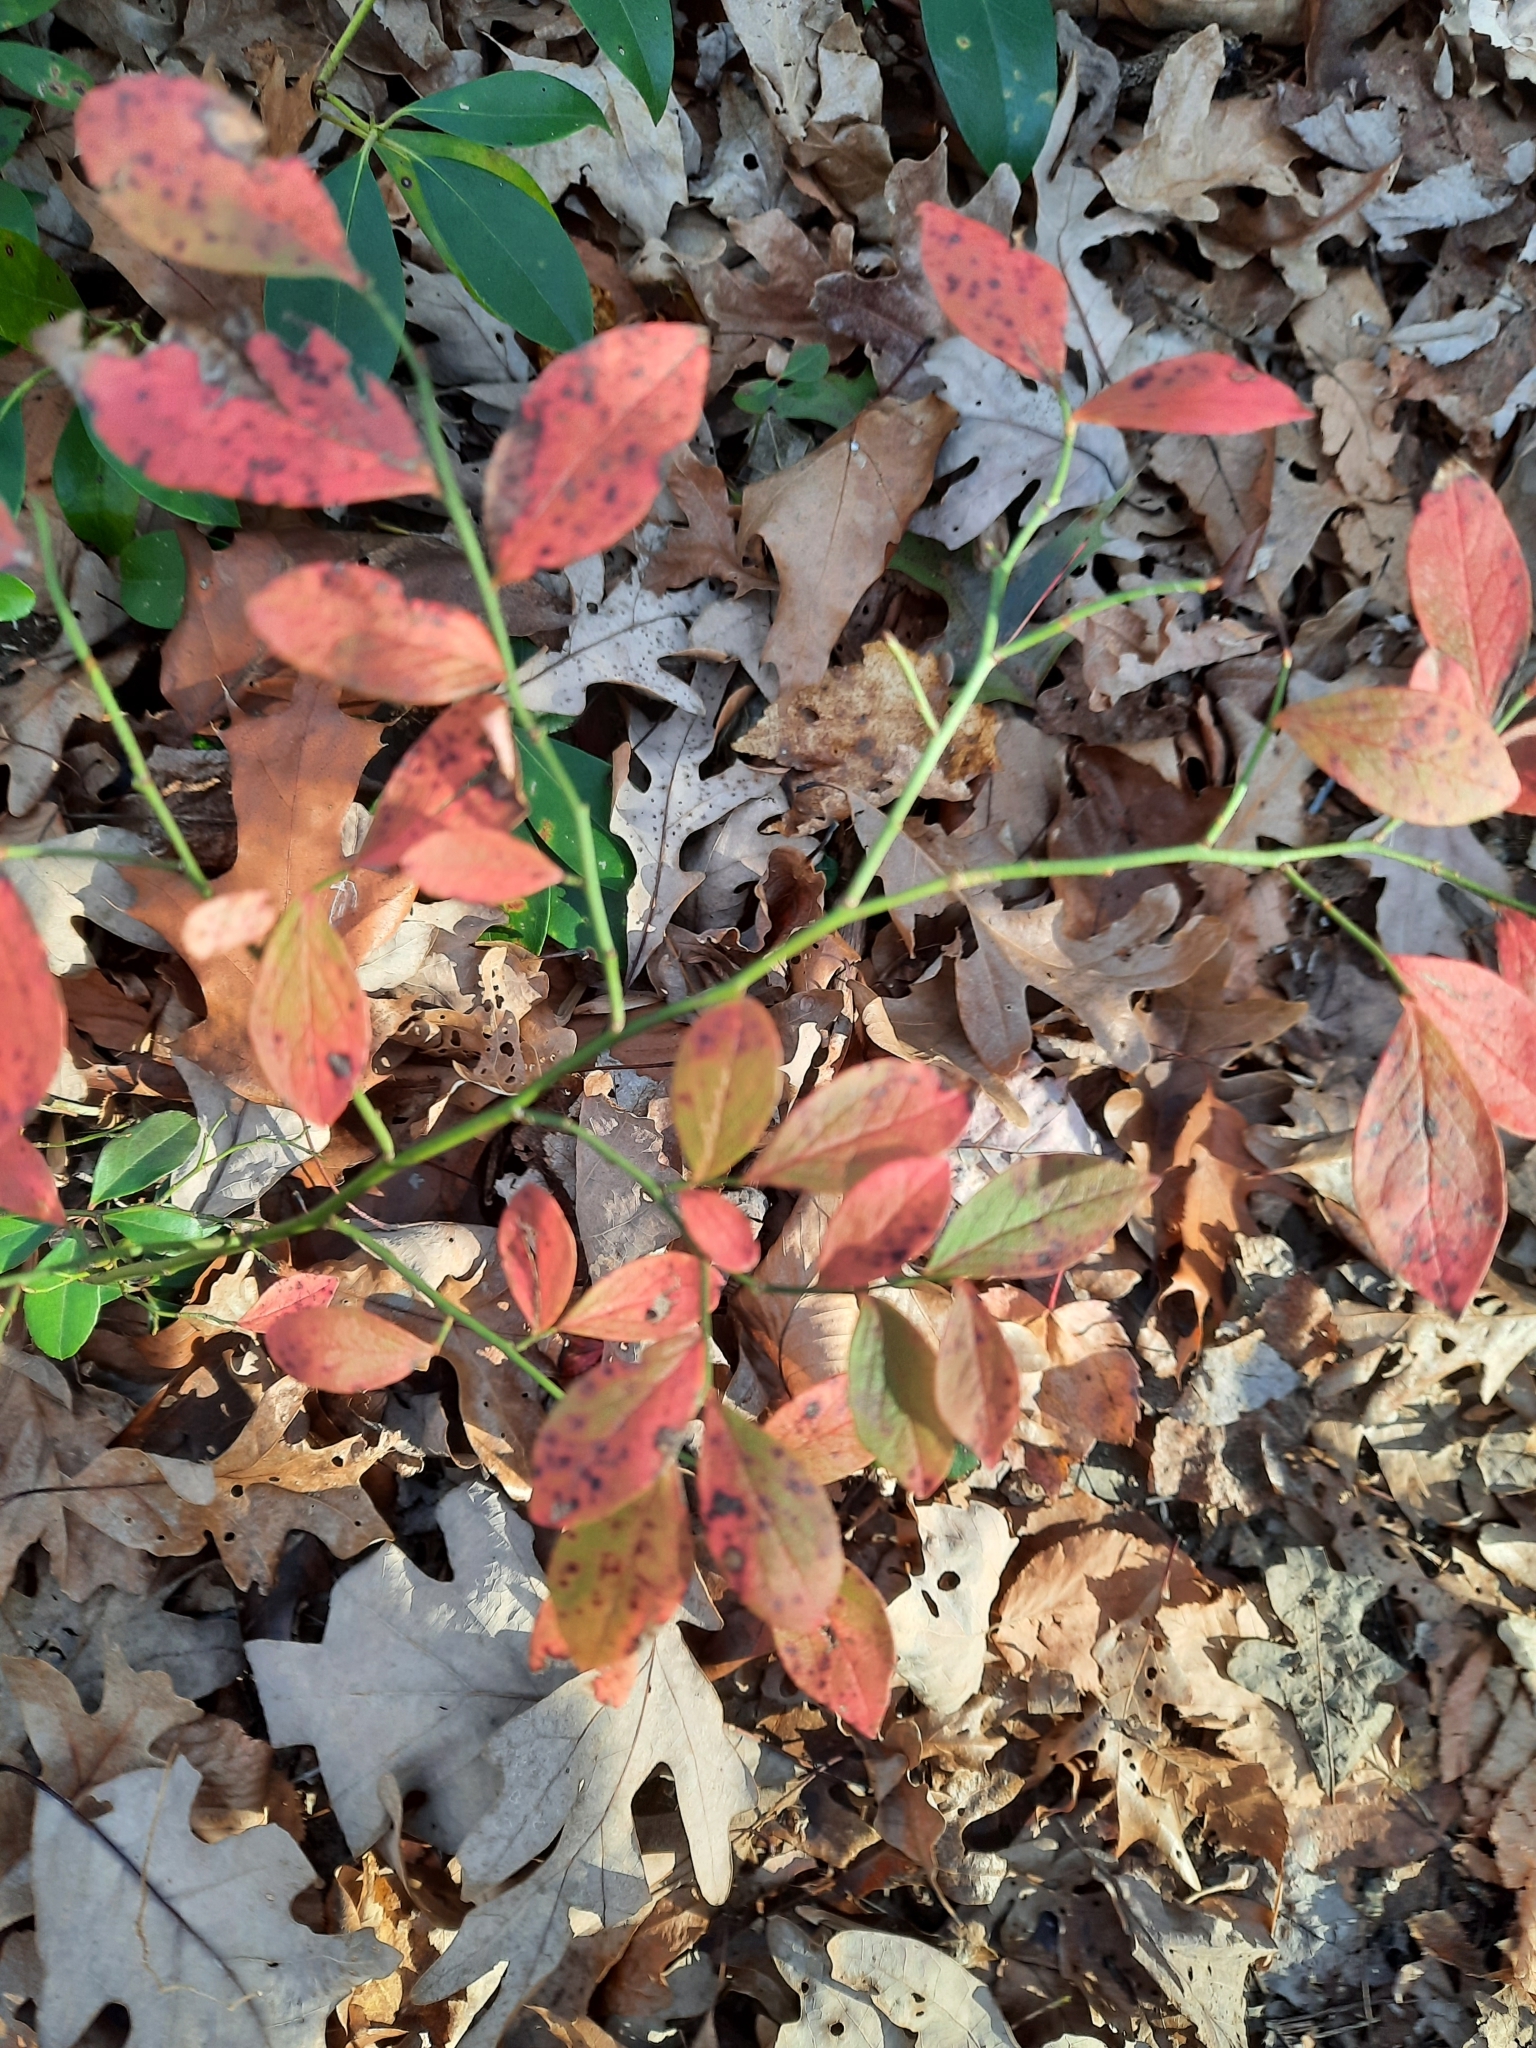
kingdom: Plantae
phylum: Tracheophyta
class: Magnoliopsida
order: Ericales
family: Ericaceae
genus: Vaccinium
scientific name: Vaccinium angustifolium
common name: Early lowbush blueberry
